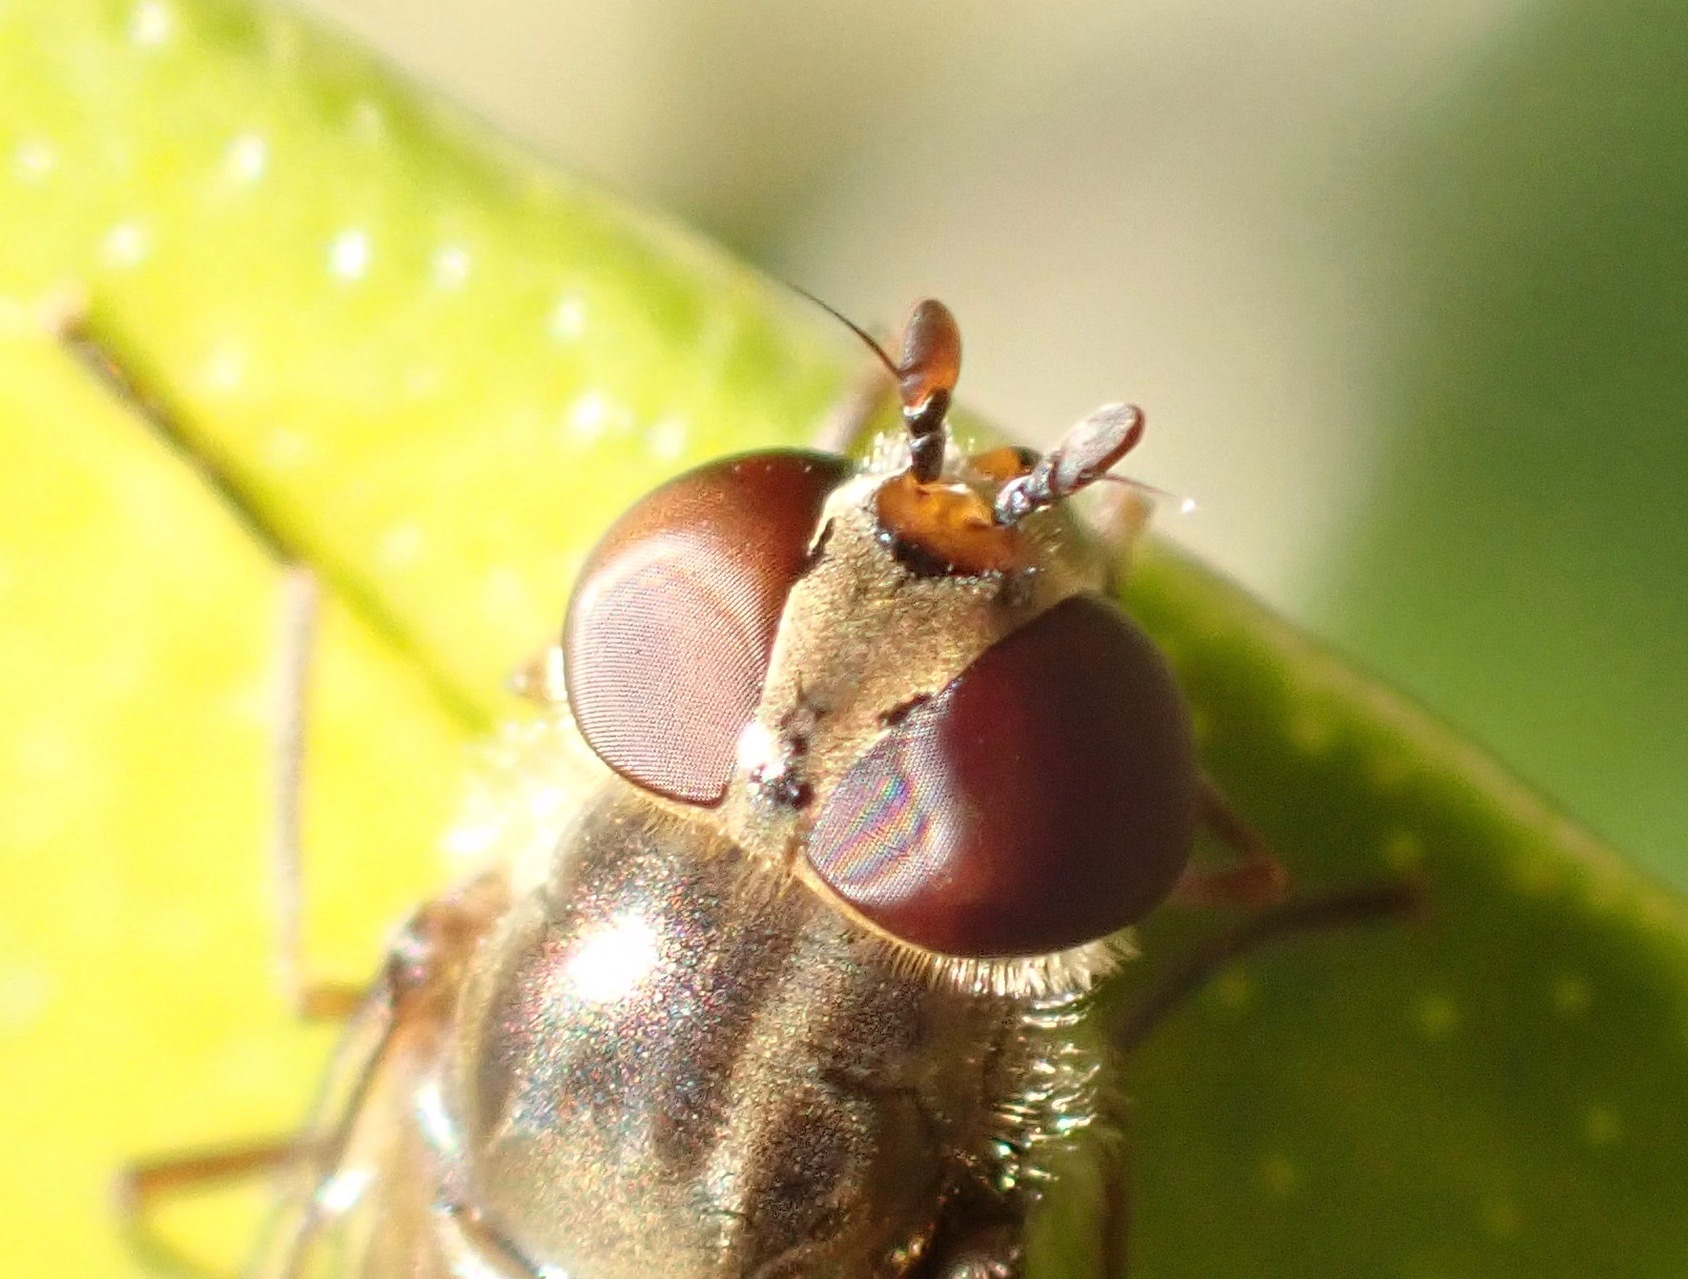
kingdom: Animalia
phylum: Arthropoda
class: Insecta
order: Diptera
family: Syrphidae
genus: Episyrphus
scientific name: Episyrphus balteatus
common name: Marmalade hoverfly
